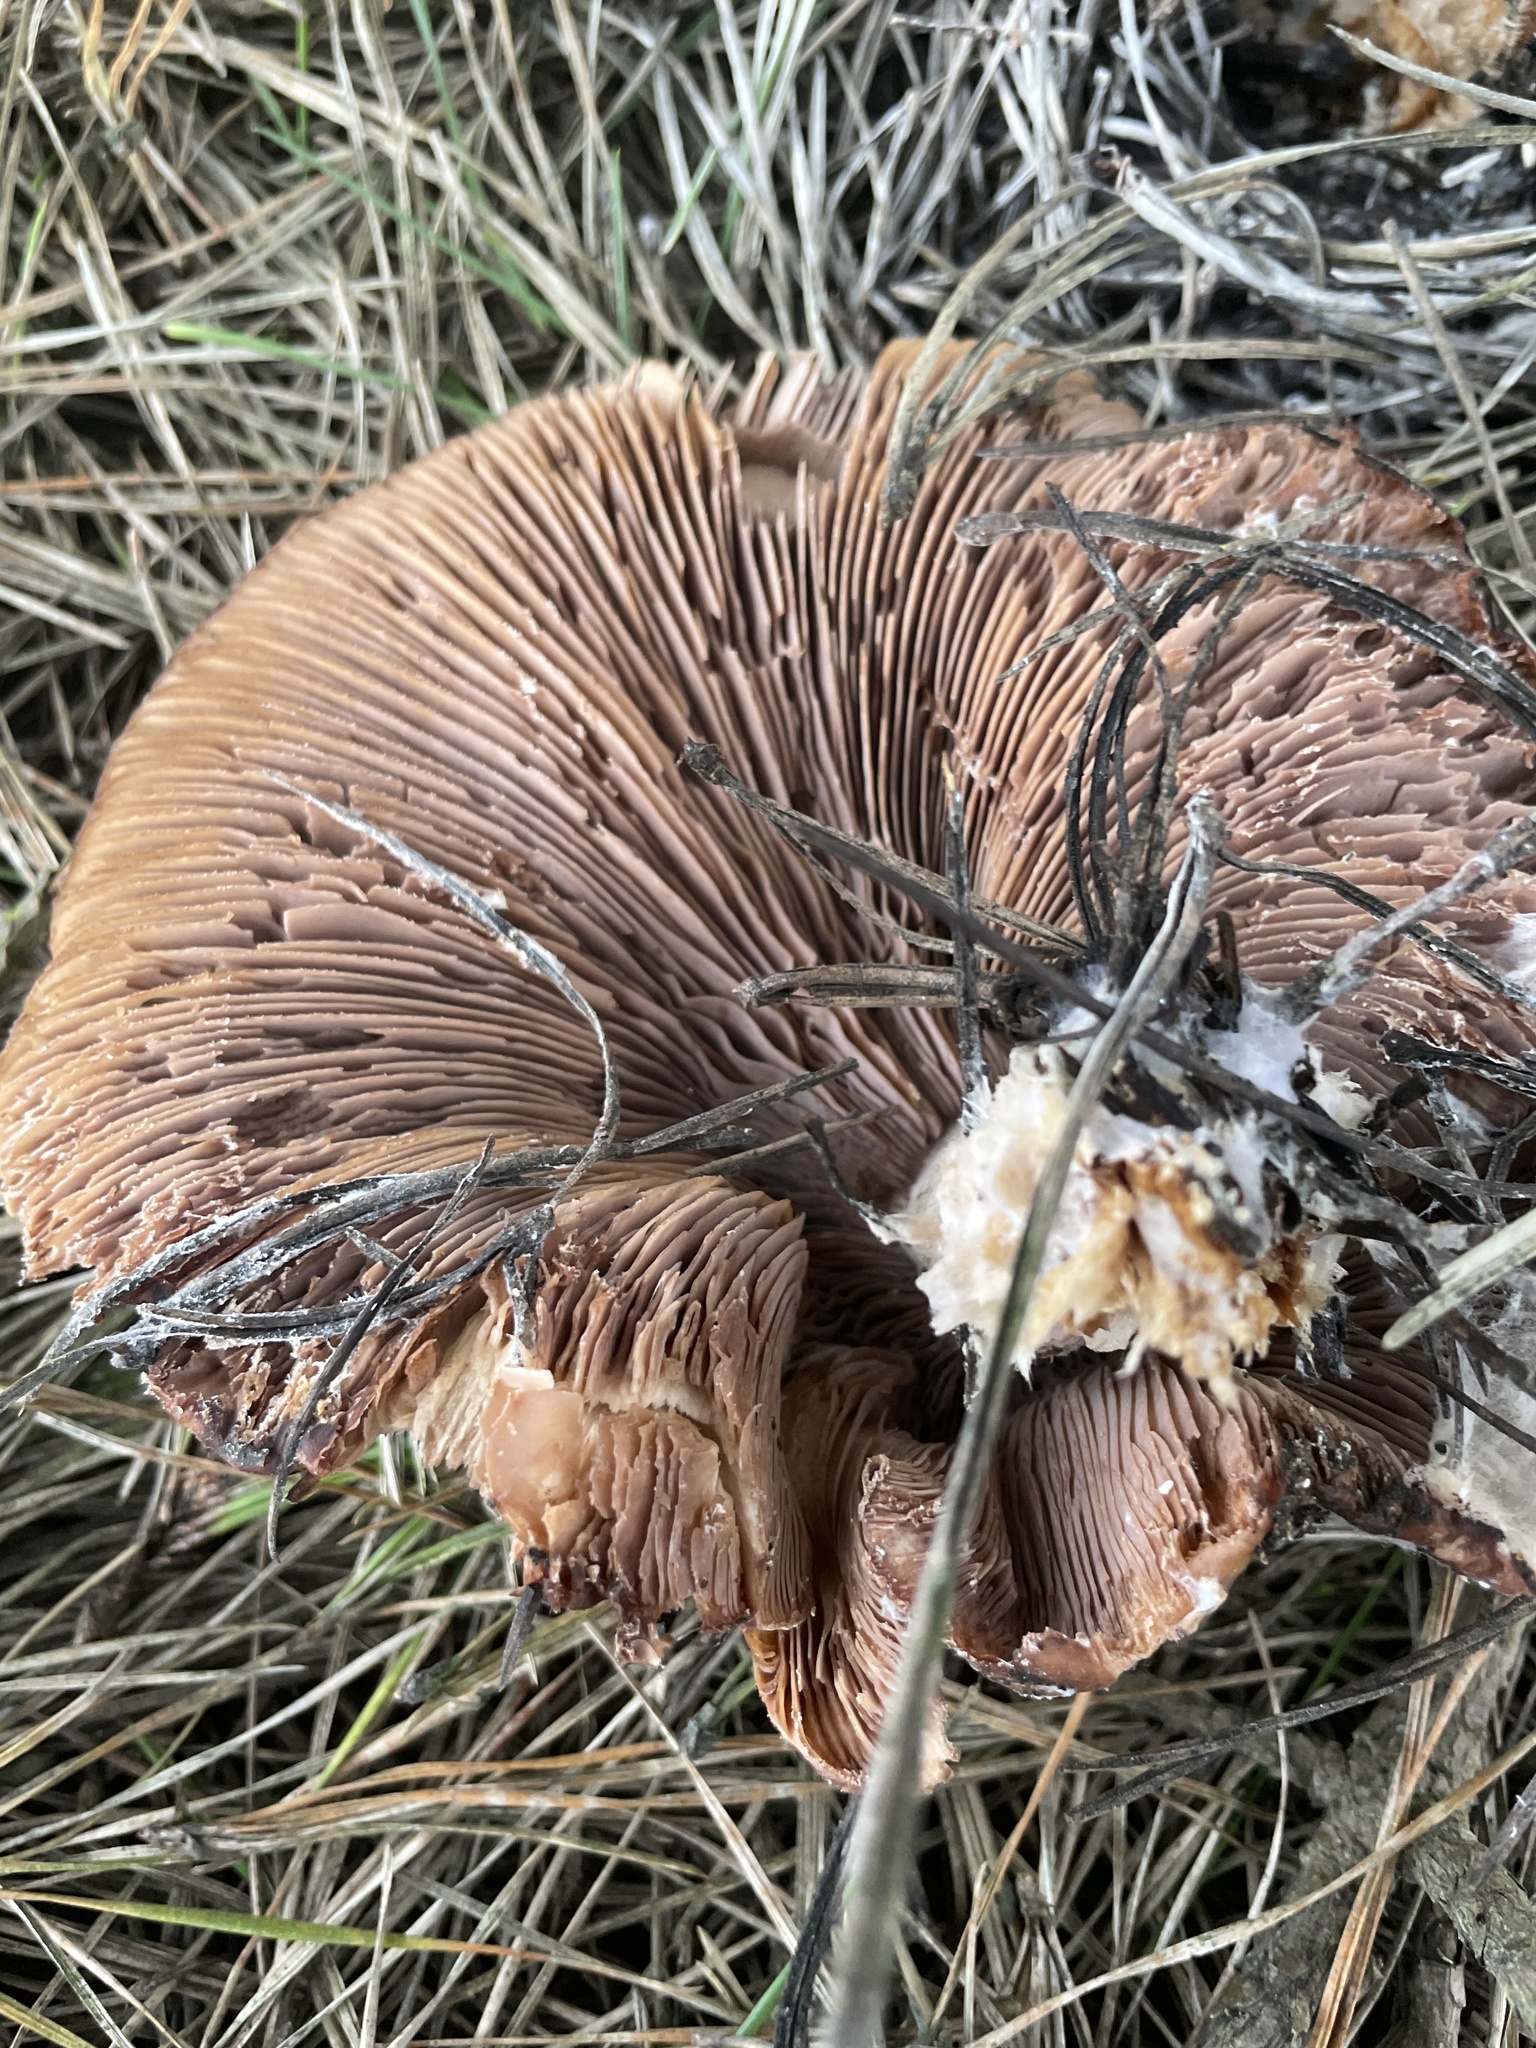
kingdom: Fungi
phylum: Basidiomycota
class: Agaricomycetes
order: Agaricales
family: Tricholomataceae
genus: Collybia
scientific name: Collybia
